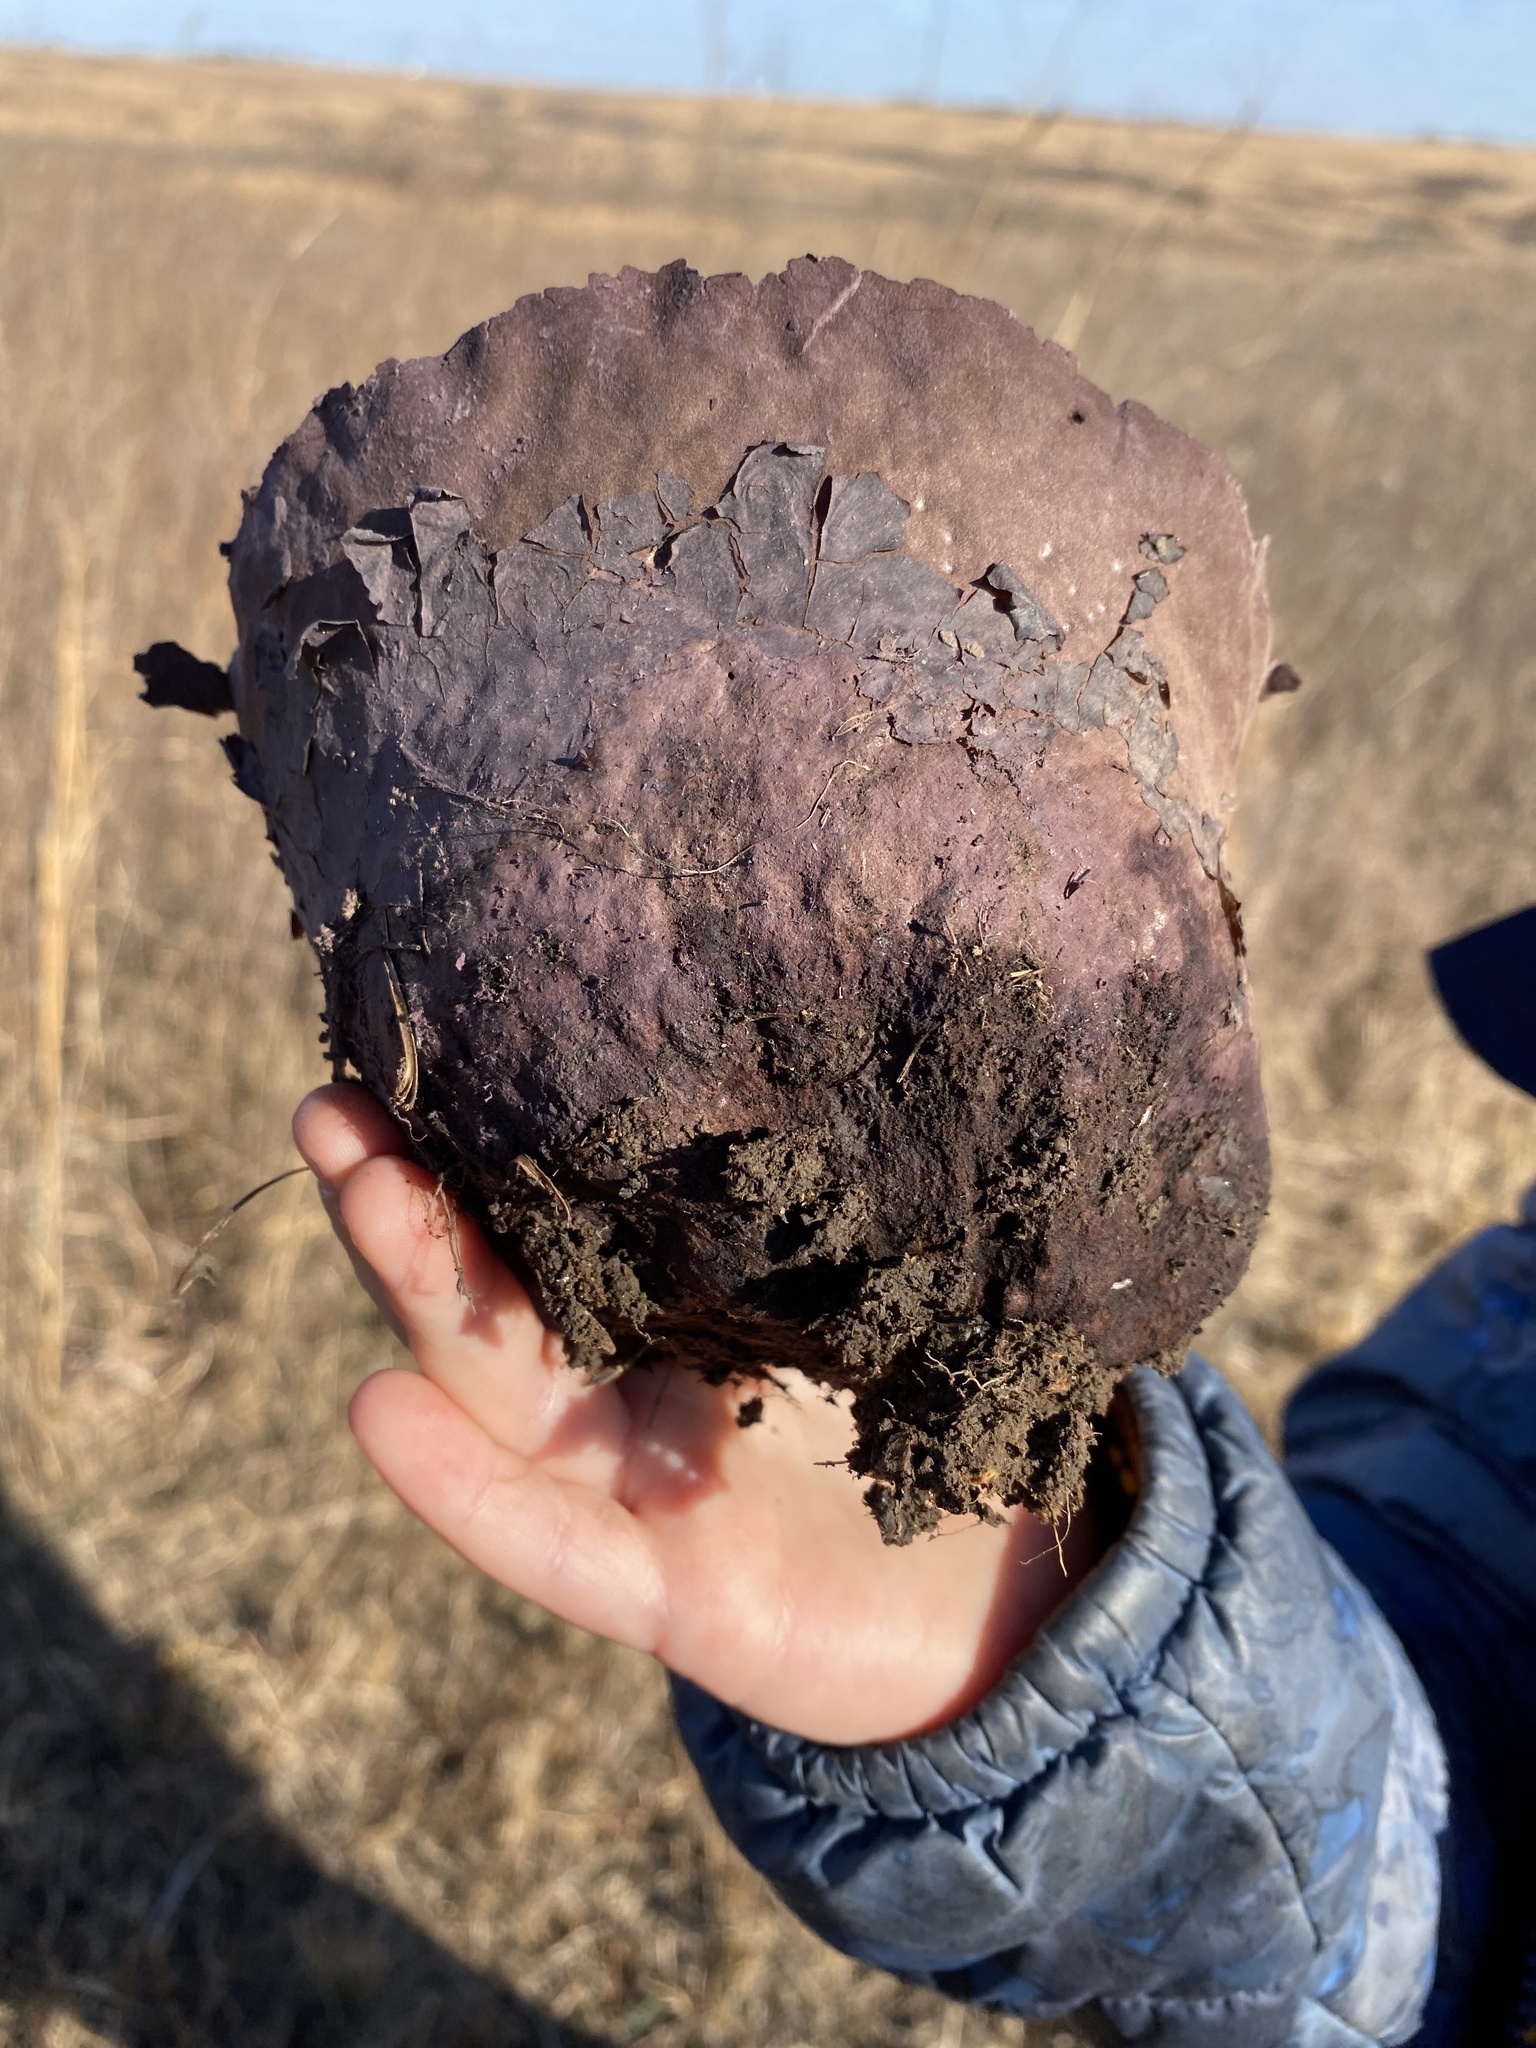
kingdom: Fungi
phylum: Basidiomycota
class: Agaricomycetes
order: Agaricales
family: Lycoperdaceae
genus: Calvatia
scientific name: Calvatia cyathiformis
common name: Purple-spored puffball
